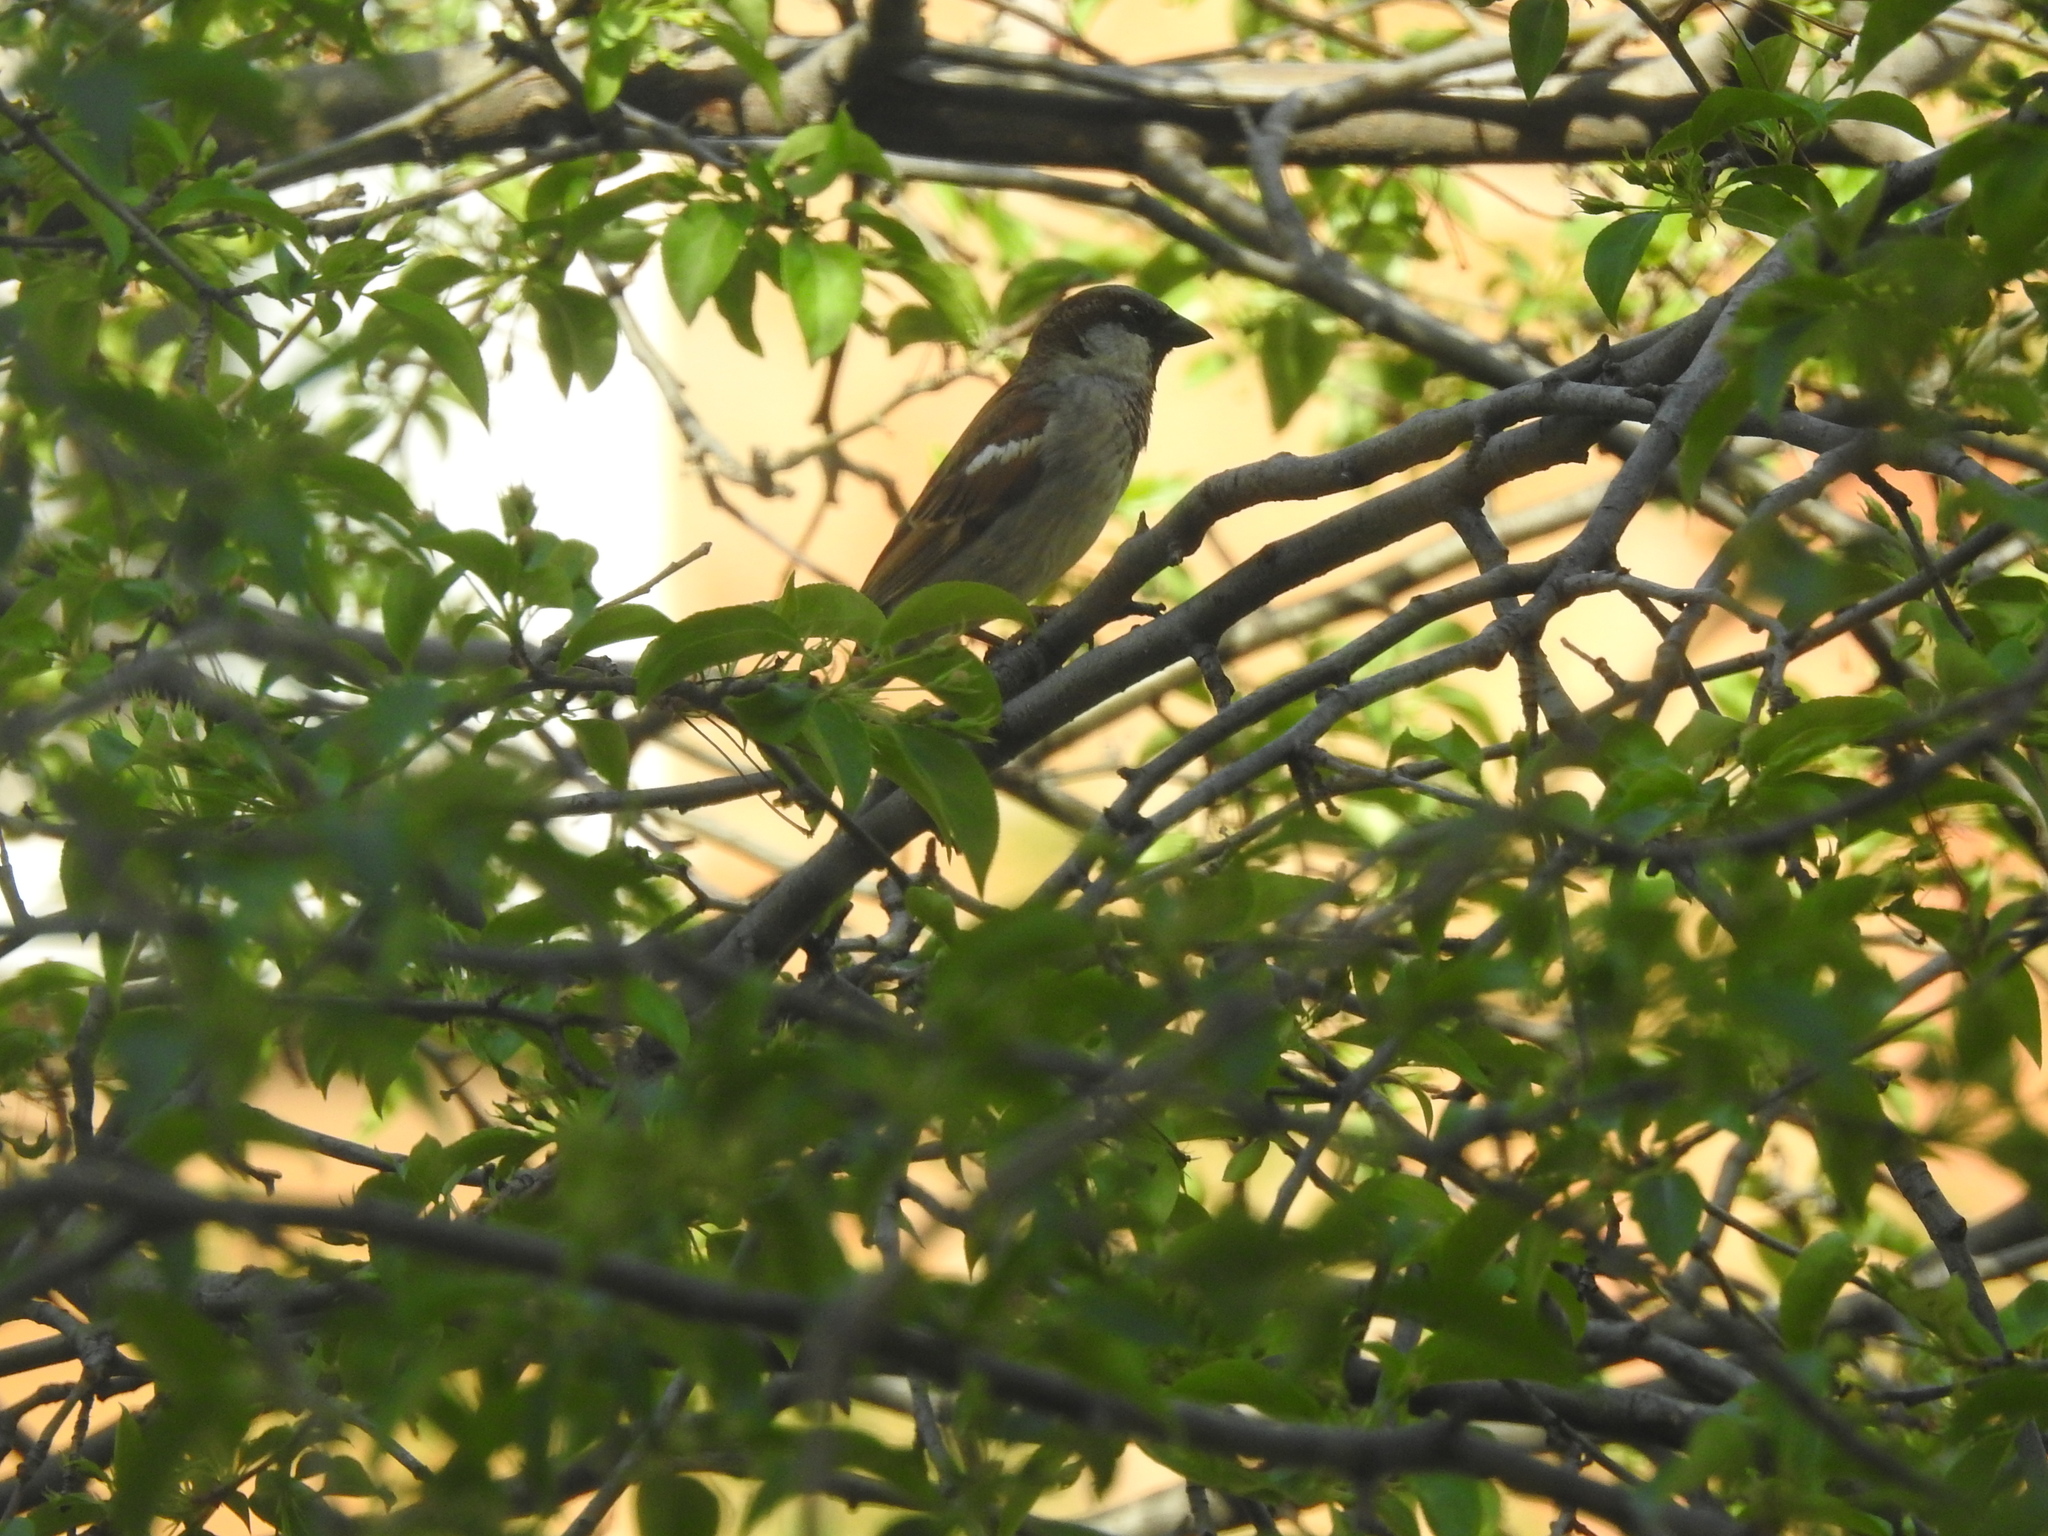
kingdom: Animalia
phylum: Chordata
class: Aves
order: Passeriformes
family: Passeridae
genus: Passer
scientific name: Passer domesticus
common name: House sparrow
